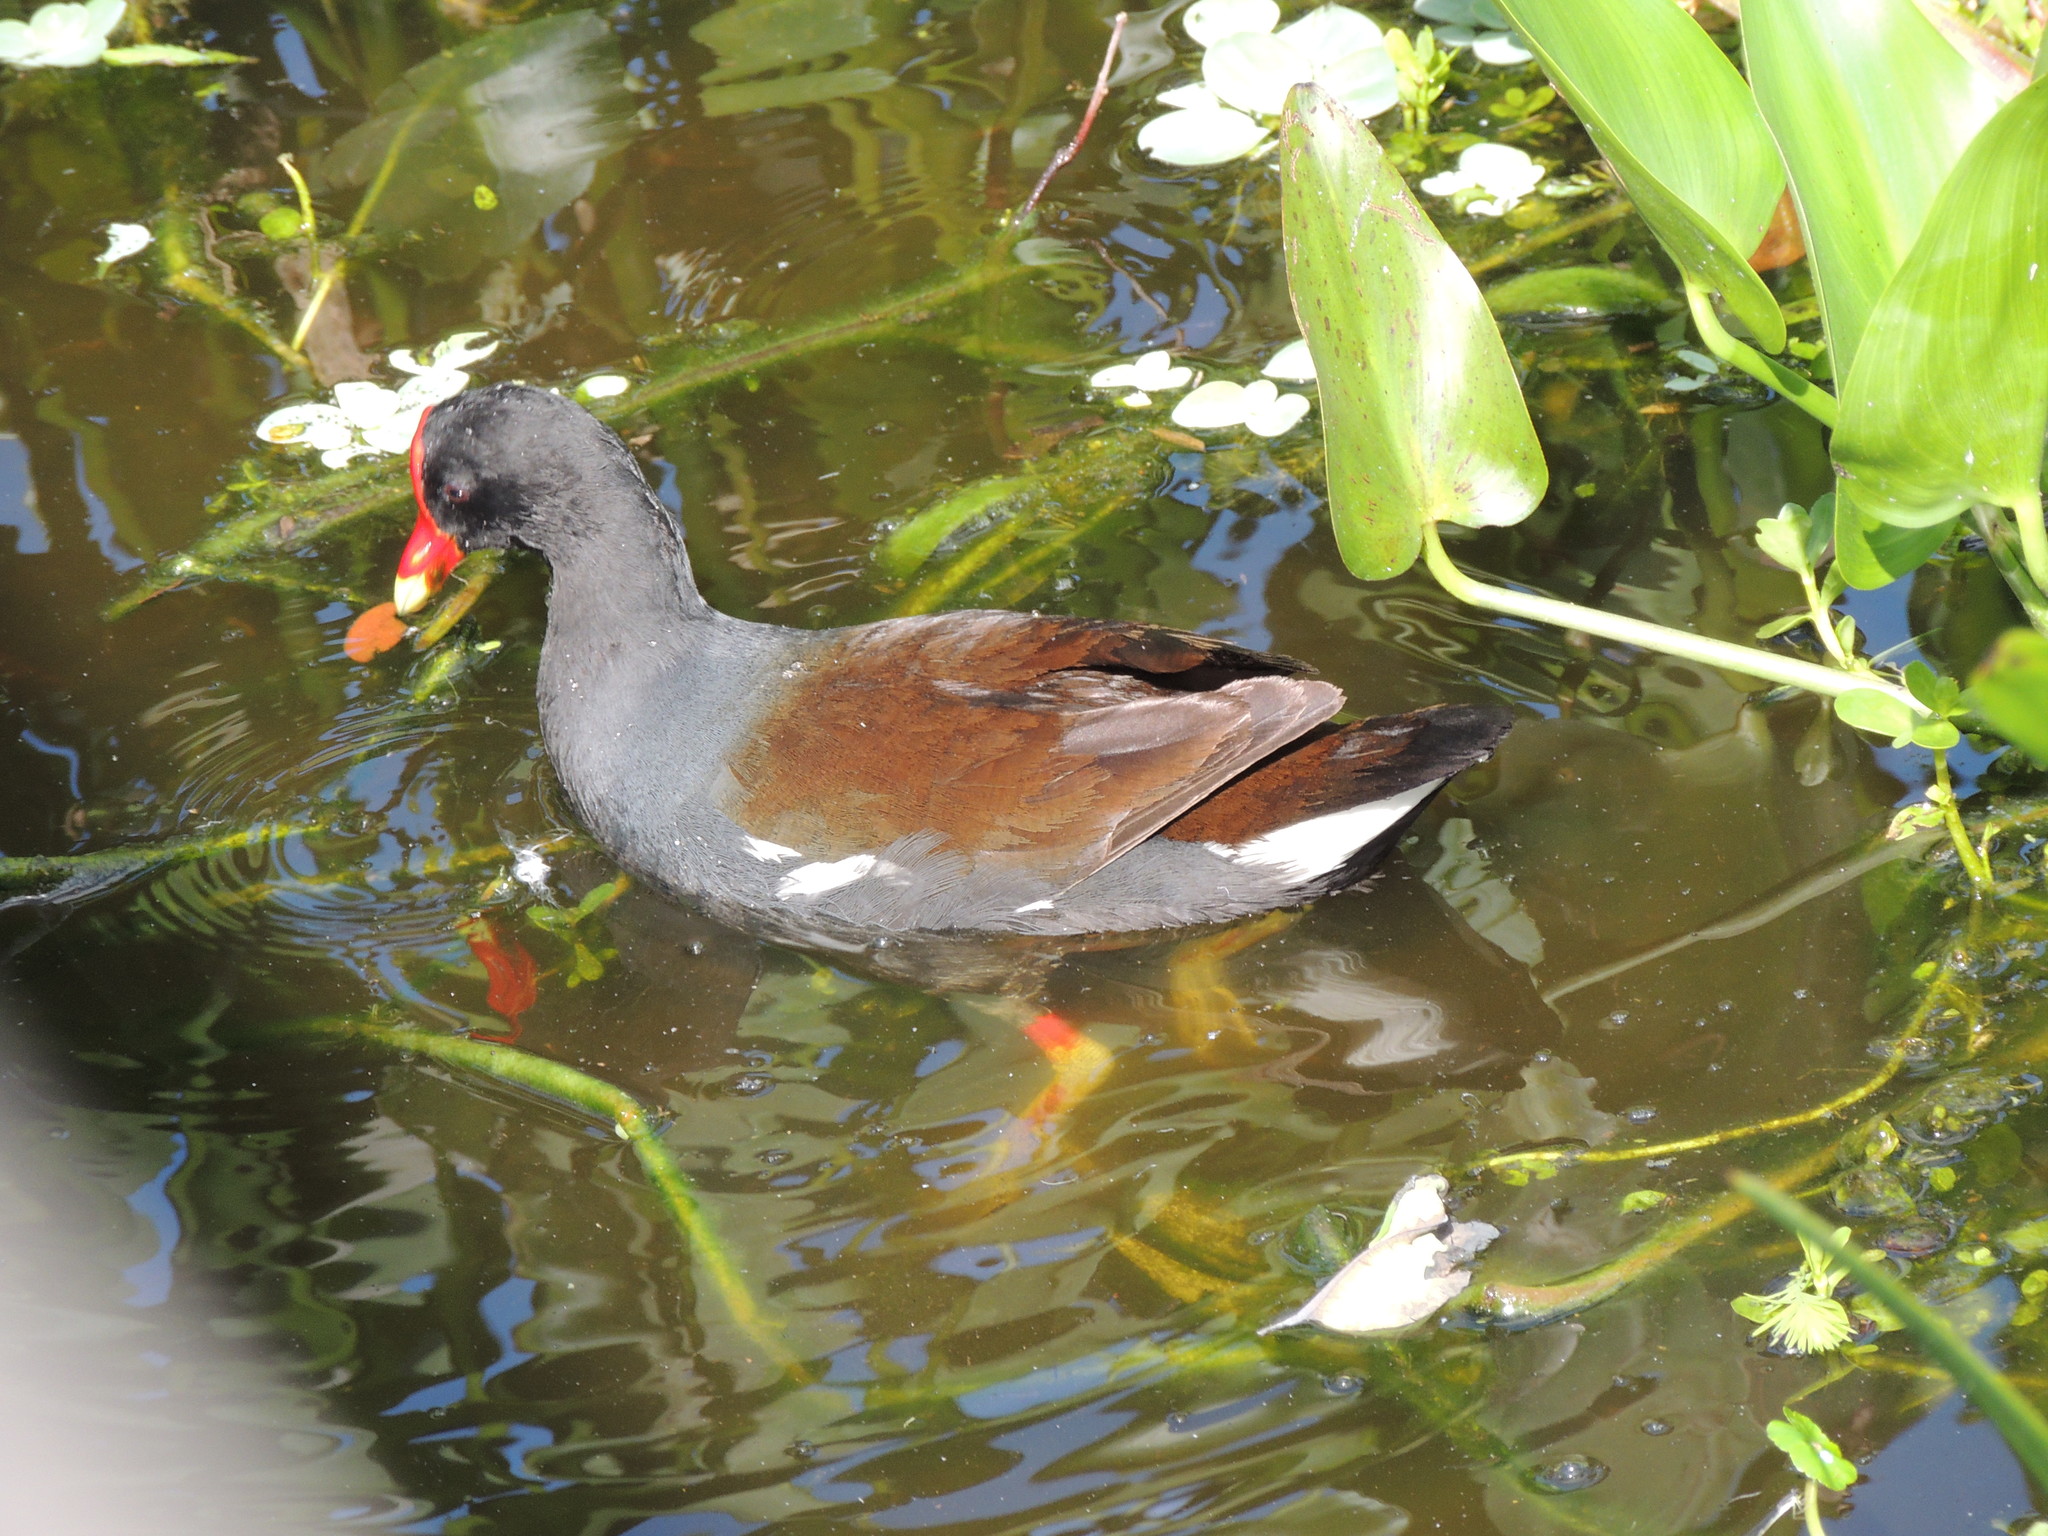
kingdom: Animalia
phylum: Chordata
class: Aves
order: Gruiformes
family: Rallidae
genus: Gallinula
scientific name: Gallinula chloropus
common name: Common moorhen
